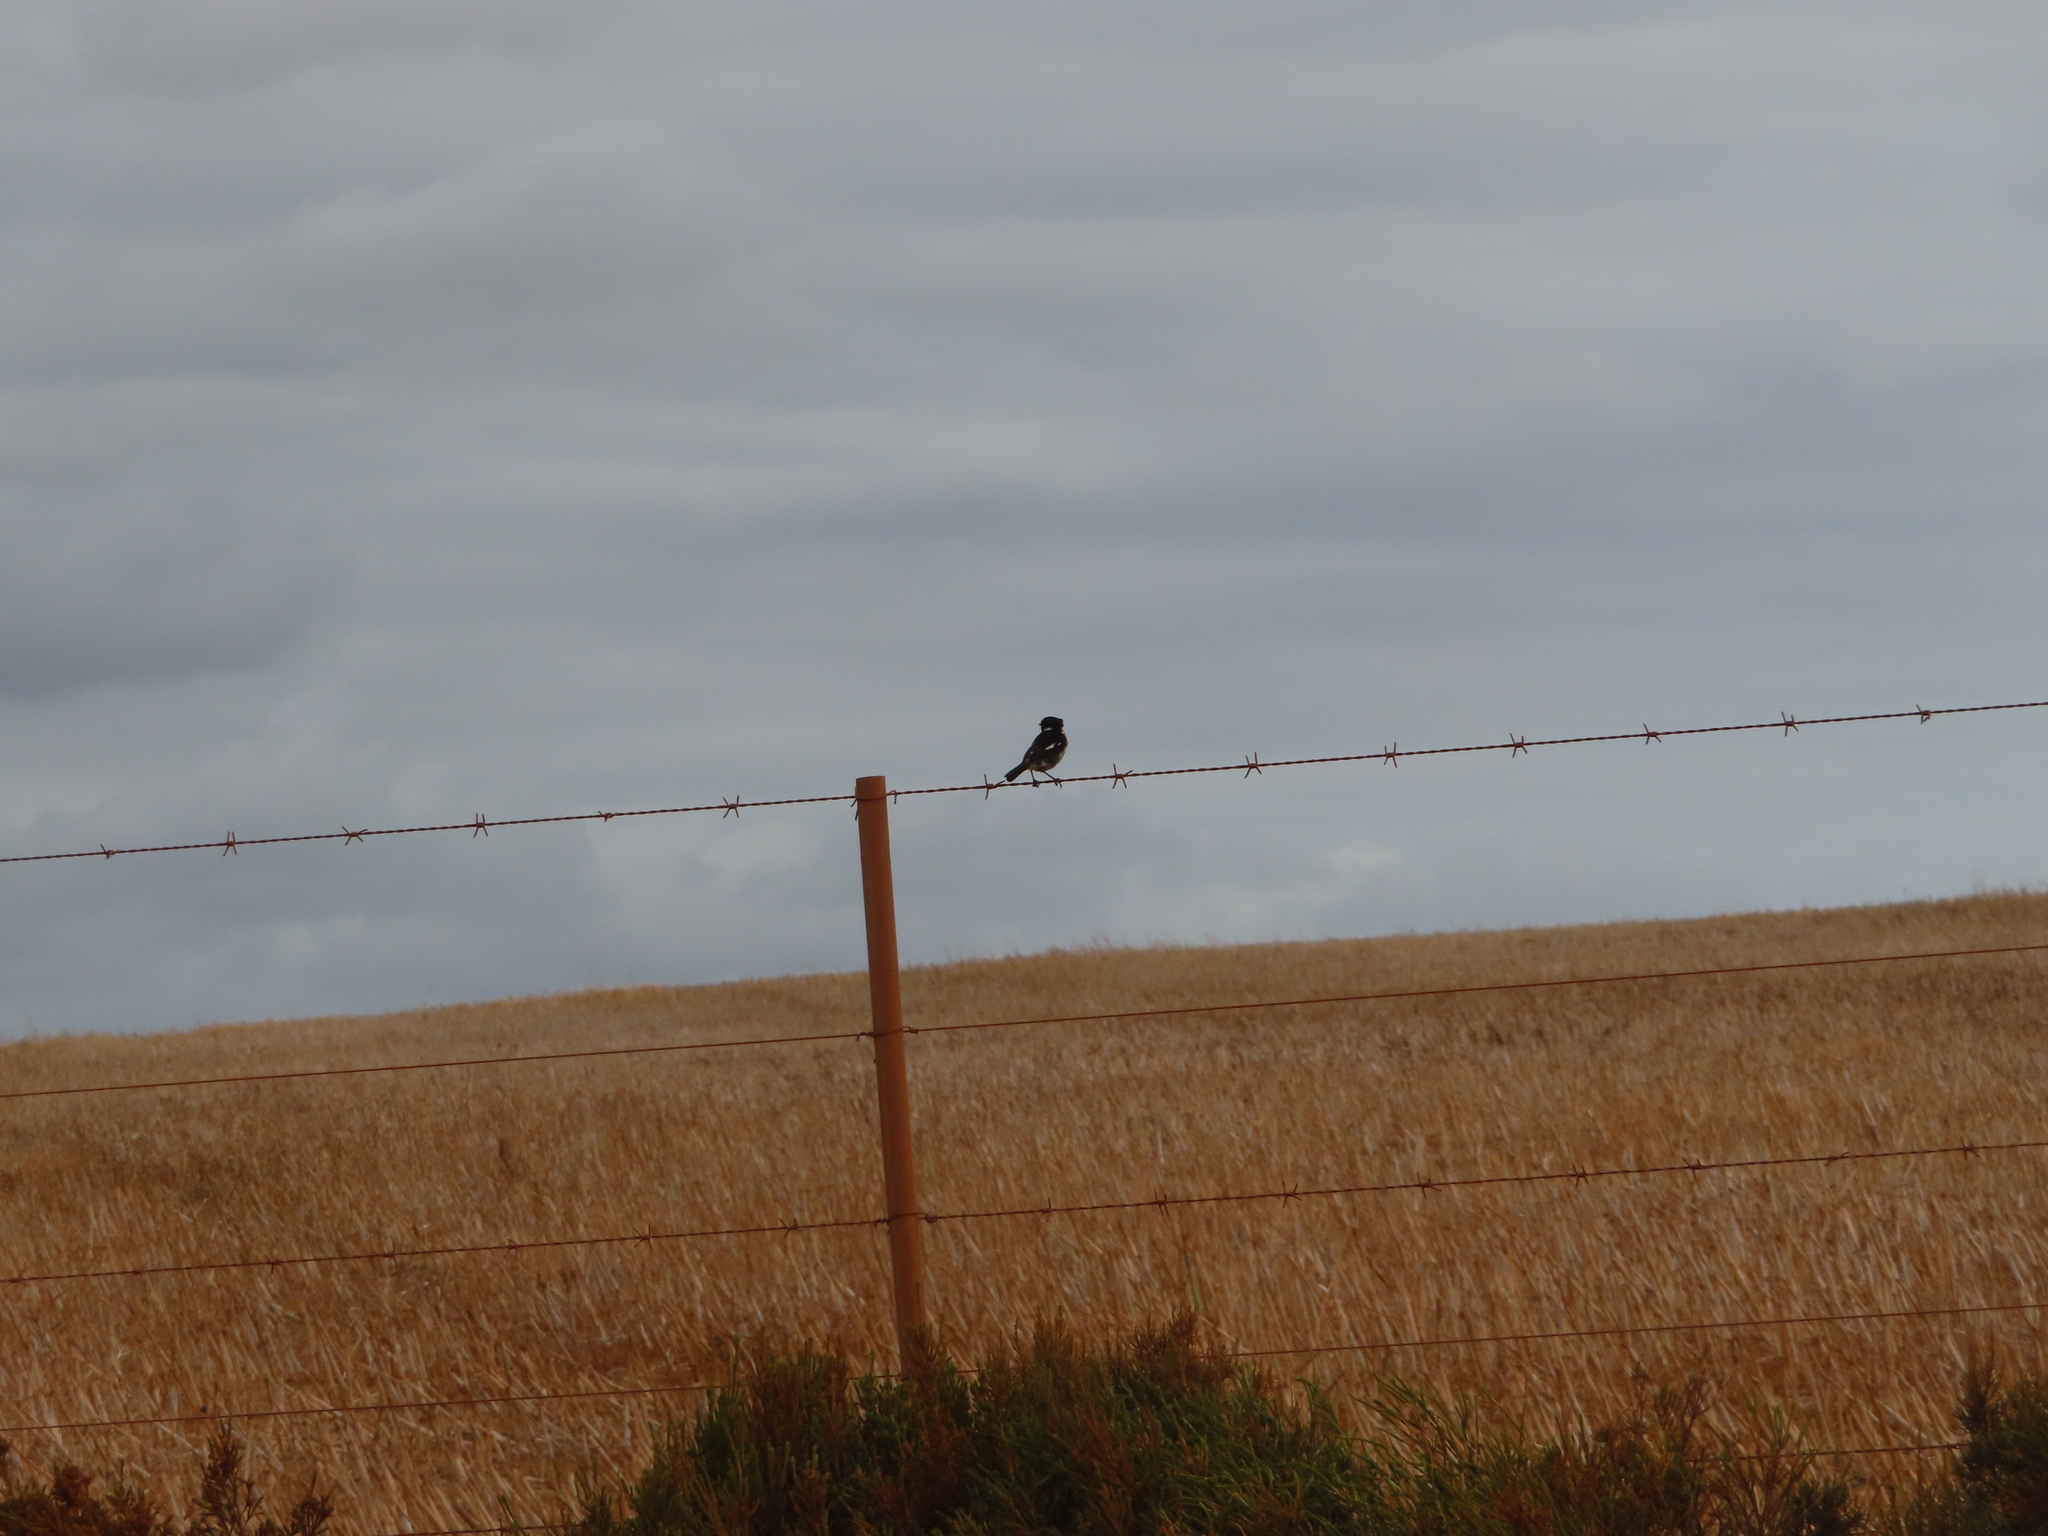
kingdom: Animalia
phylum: Chordata
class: Aves
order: Passeriformes
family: Muscicapidae
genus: Saxicola
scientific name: Saxicola torquatus
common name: African stonechat
